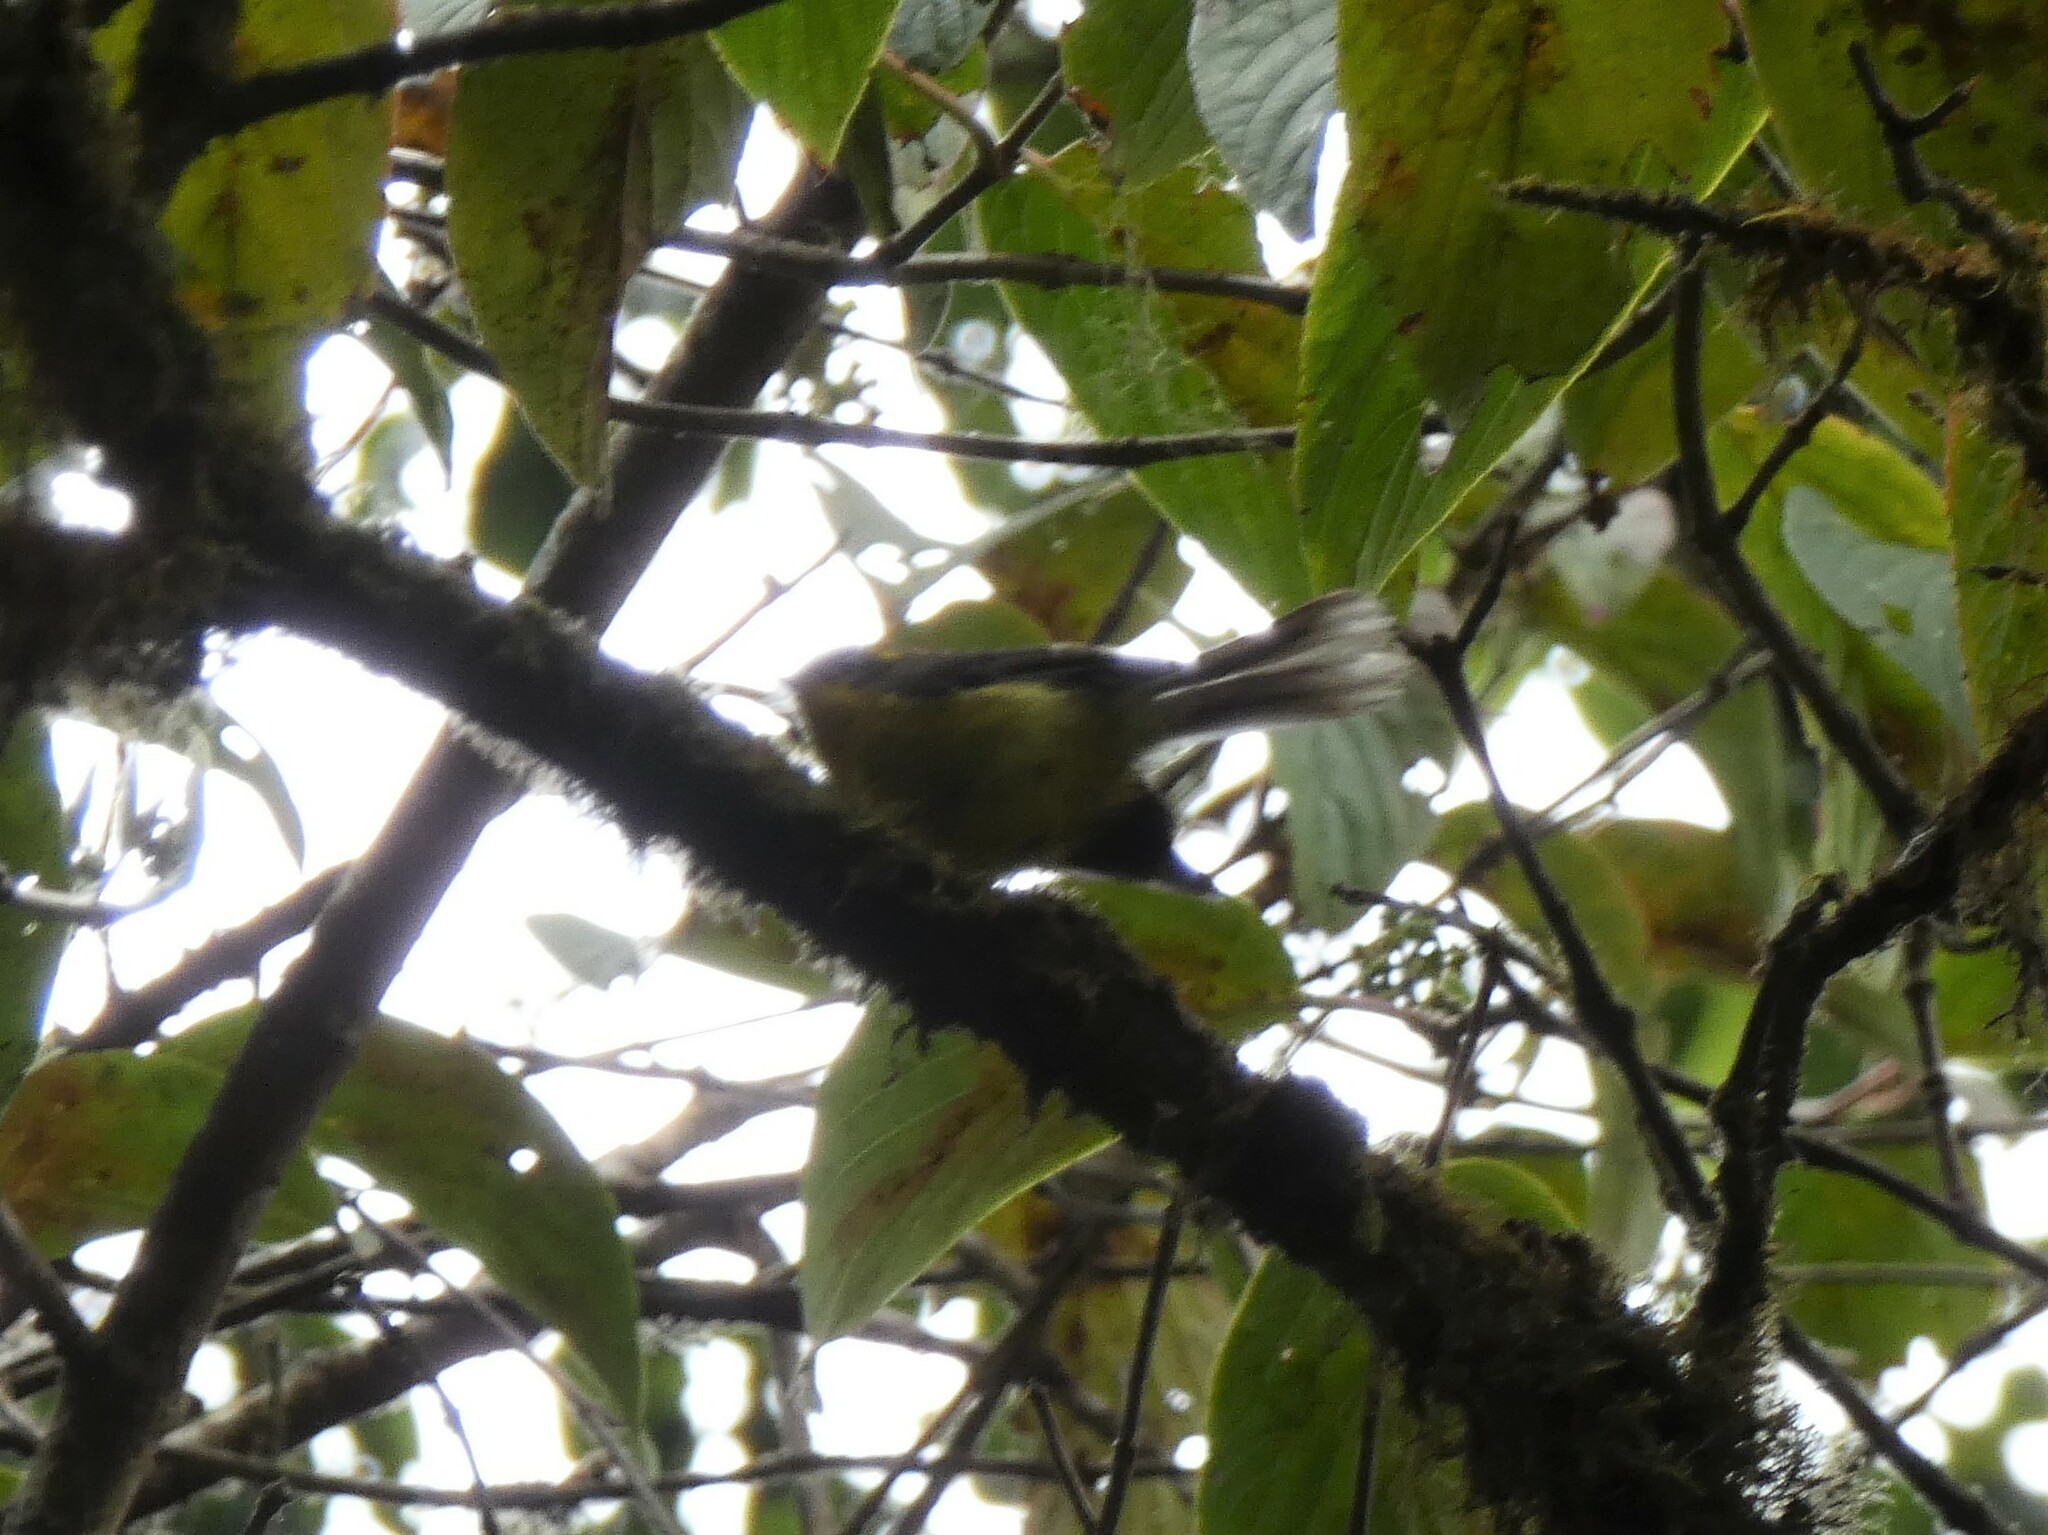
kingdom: Animalia
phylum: Chordata
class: Aves
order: Passeriformes
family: Stenostiridae
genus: Chelidorhynx
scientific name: Chelidorhynx hypoxantha
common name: Yellow-bellied fantail
